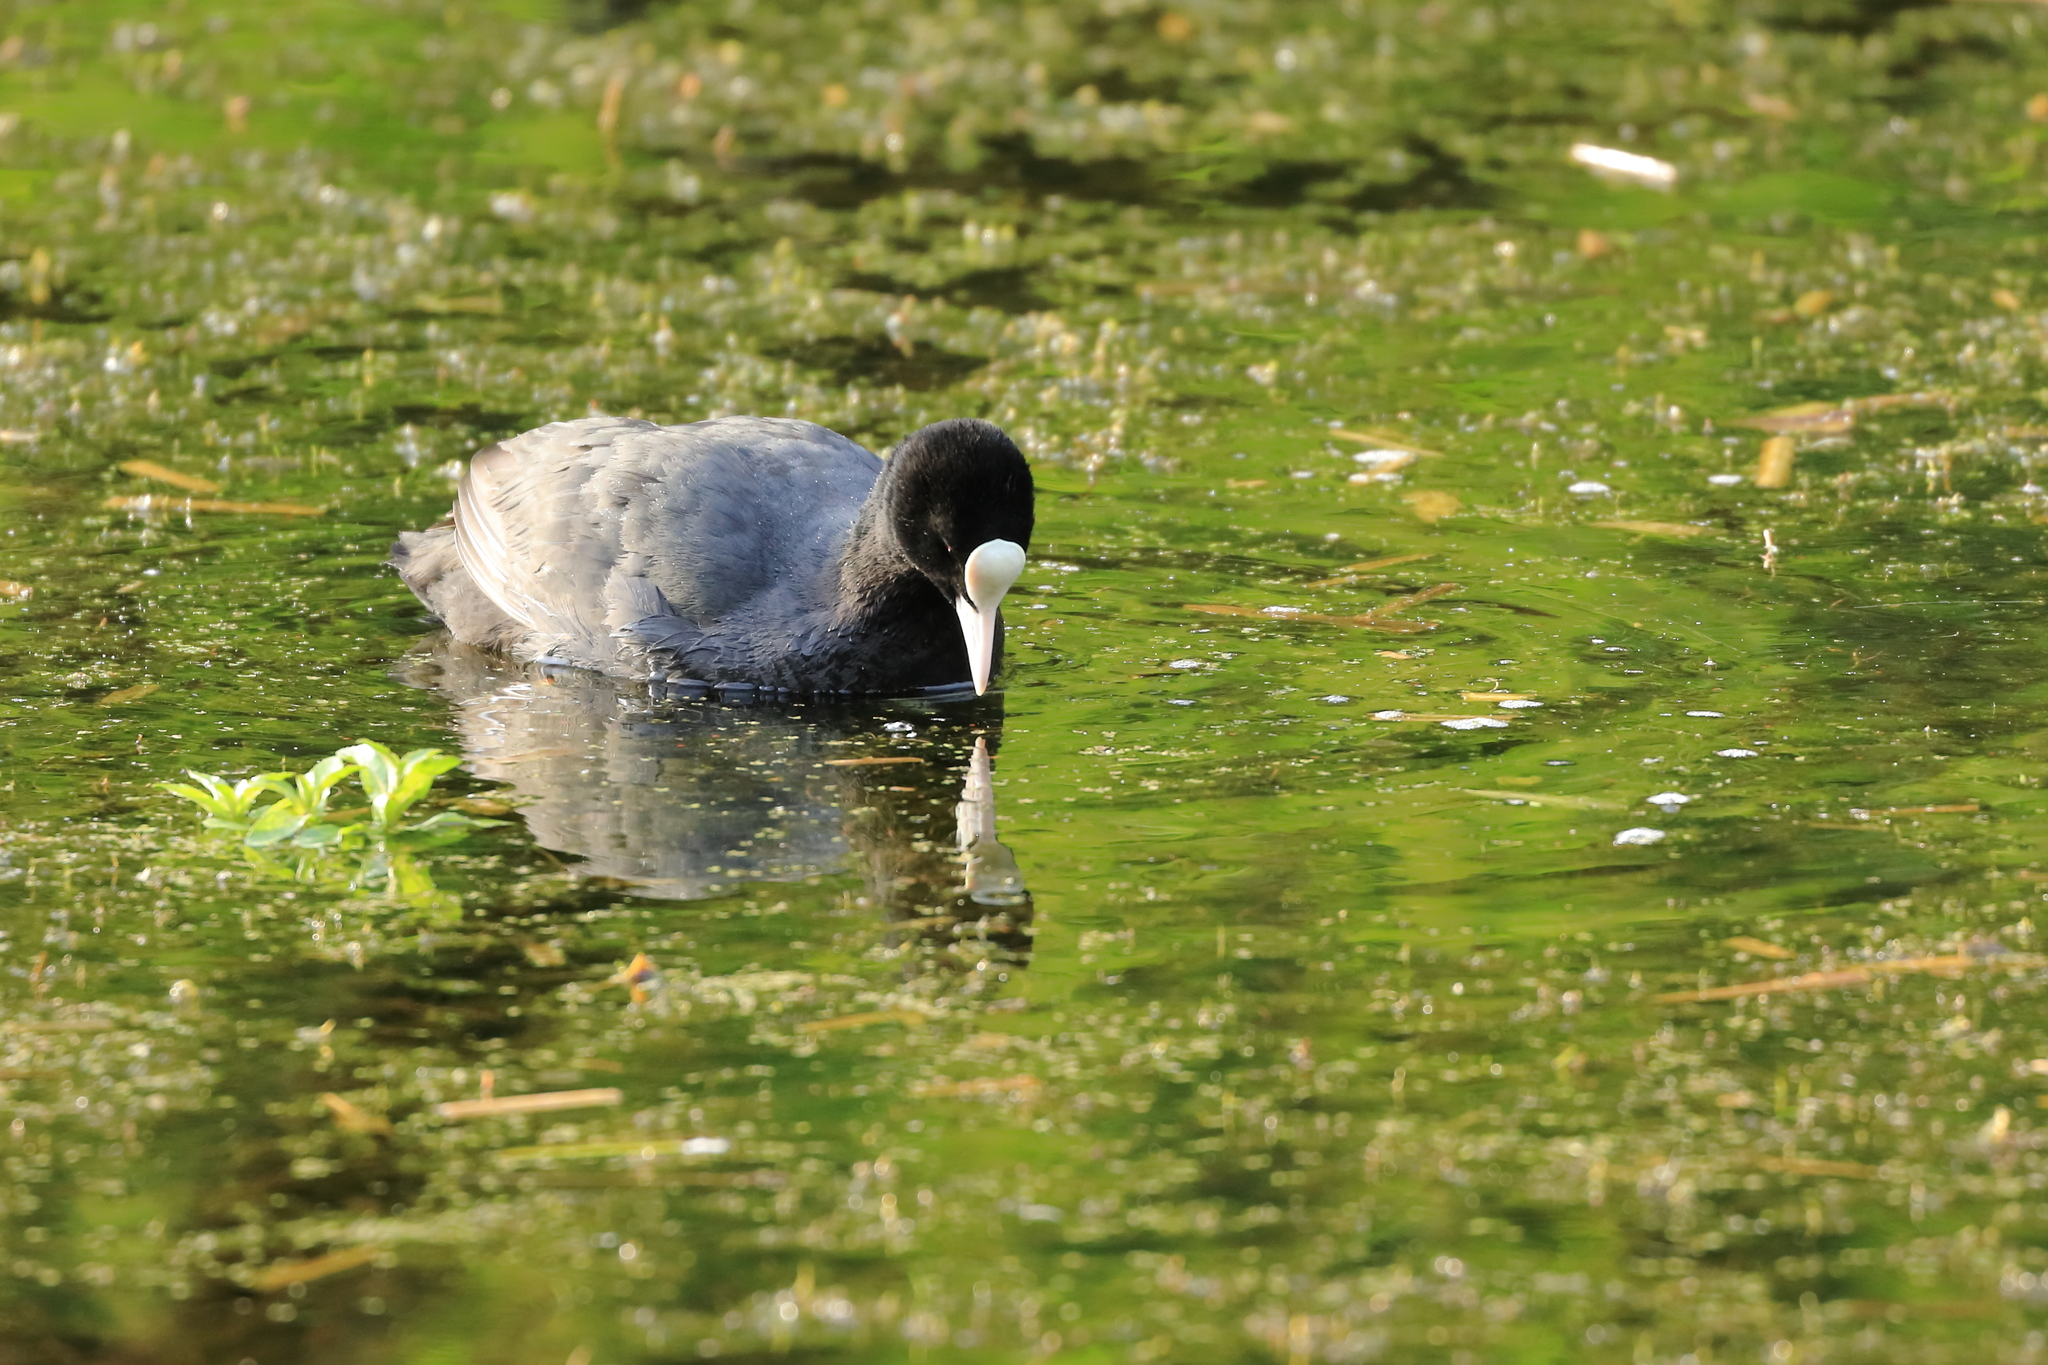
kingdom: Animalia
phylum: Chordata
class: Aves
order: Gruiformes
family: Rallidae
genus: Fulica
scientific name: Fulica atra
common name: Eurasian coot
